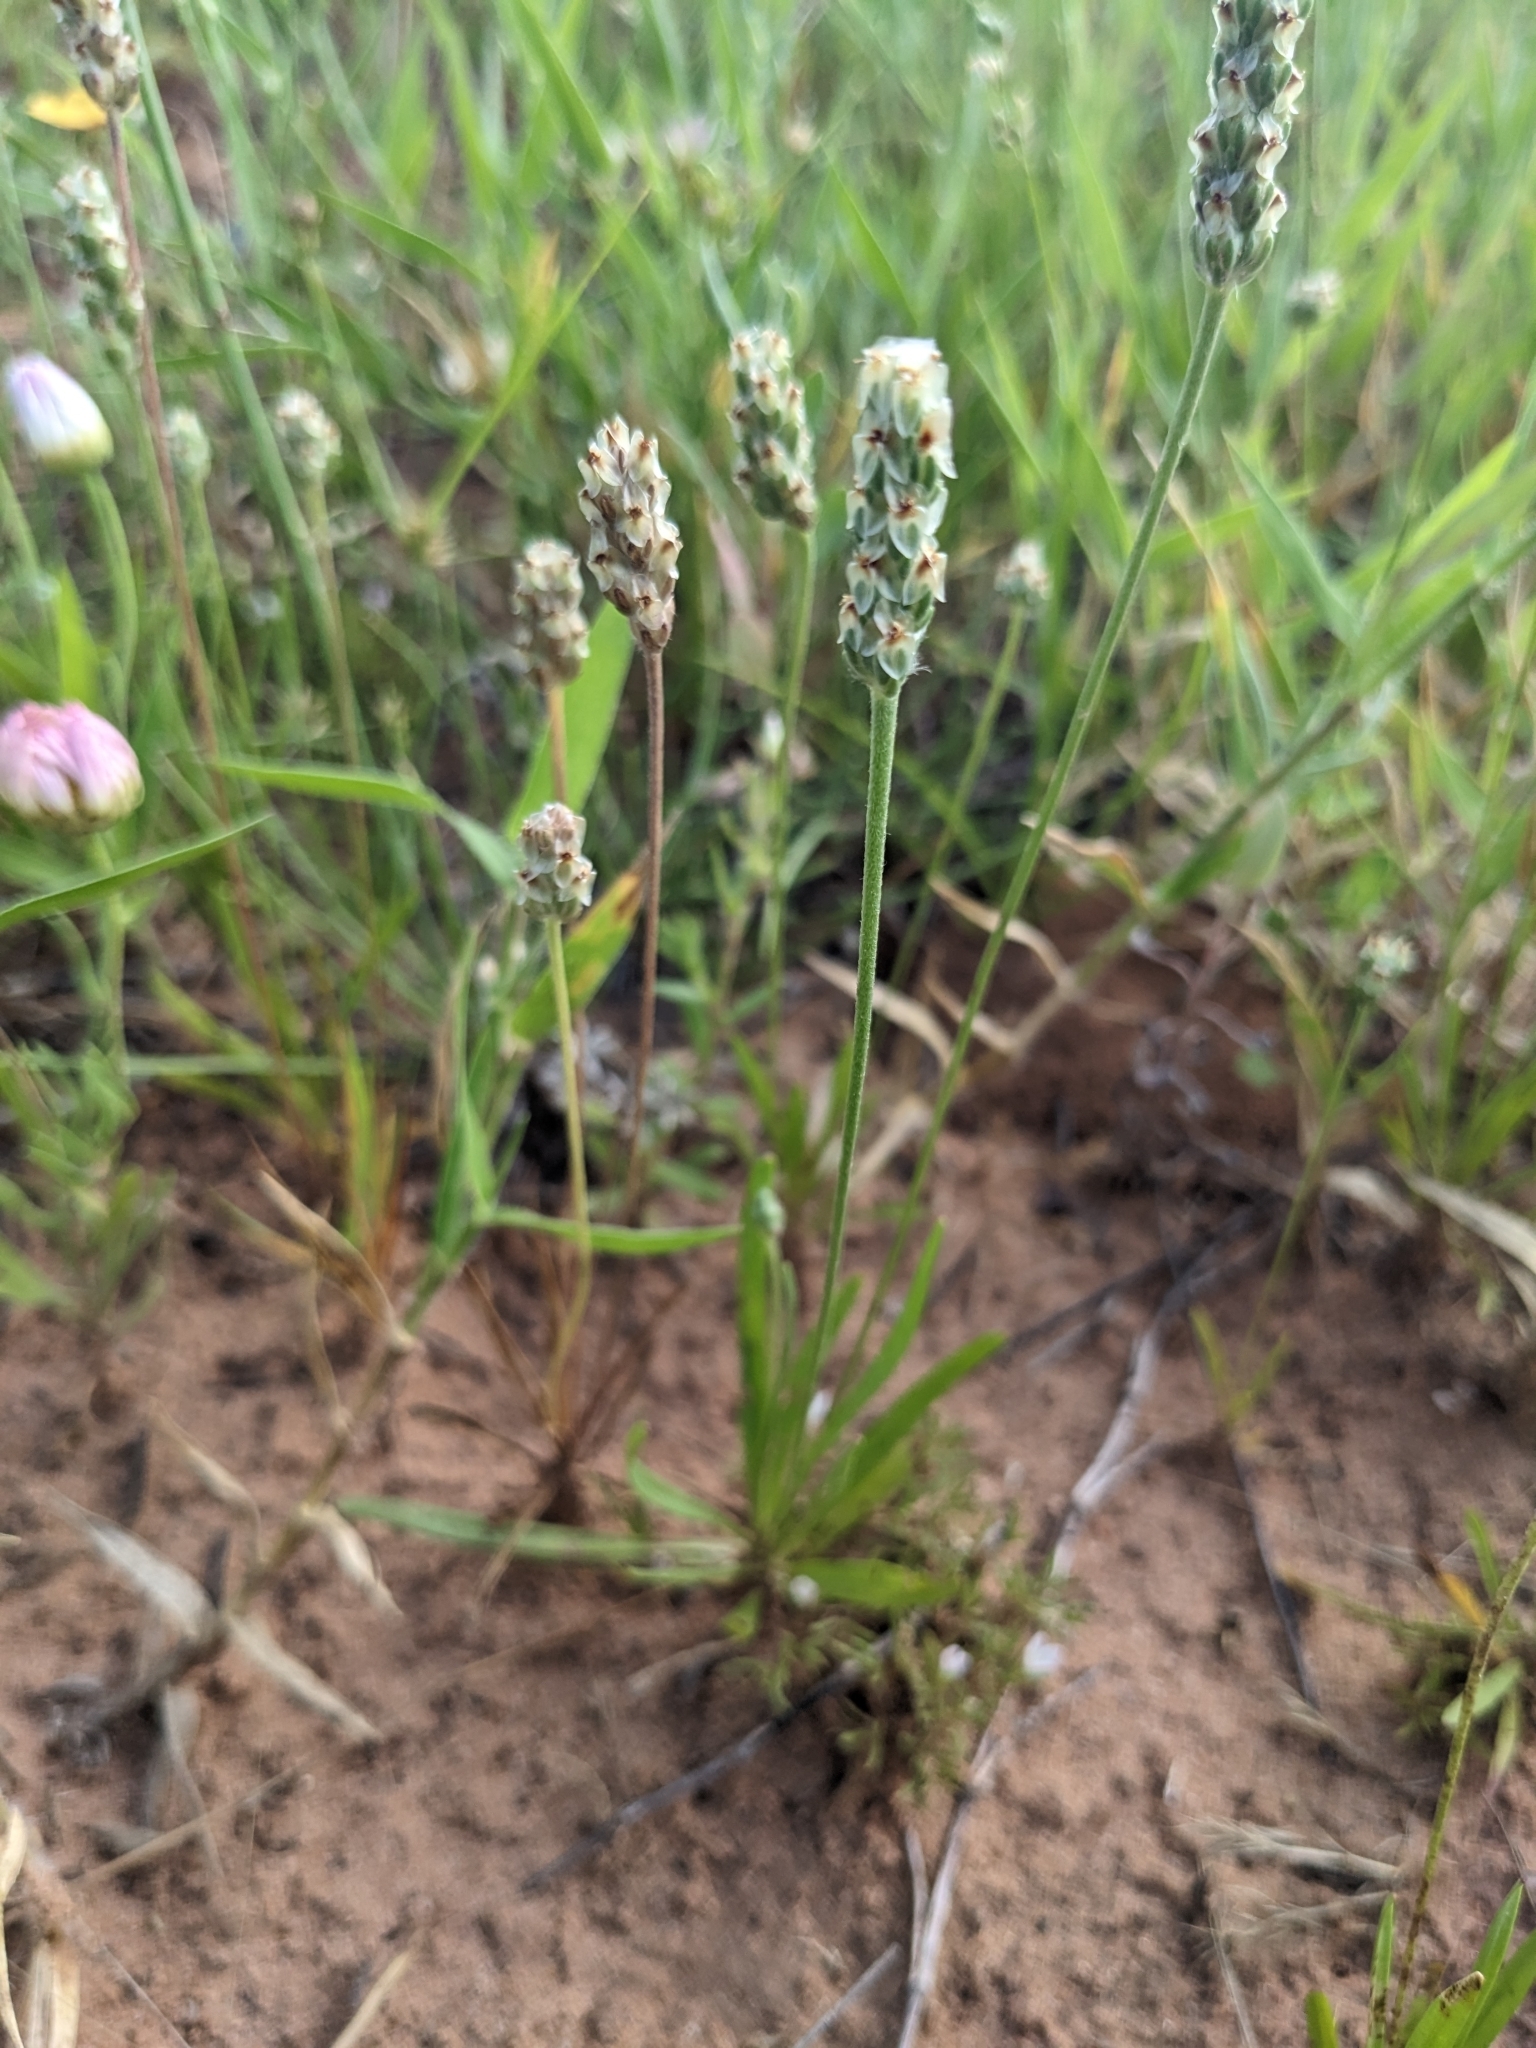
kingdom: Plantae
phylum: Tracheophyta
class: Magnoliopsida
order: Lamiales
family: Plantaginaceae
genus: Plantago
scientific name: Plantago wrightiana
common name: Wright's plantain
